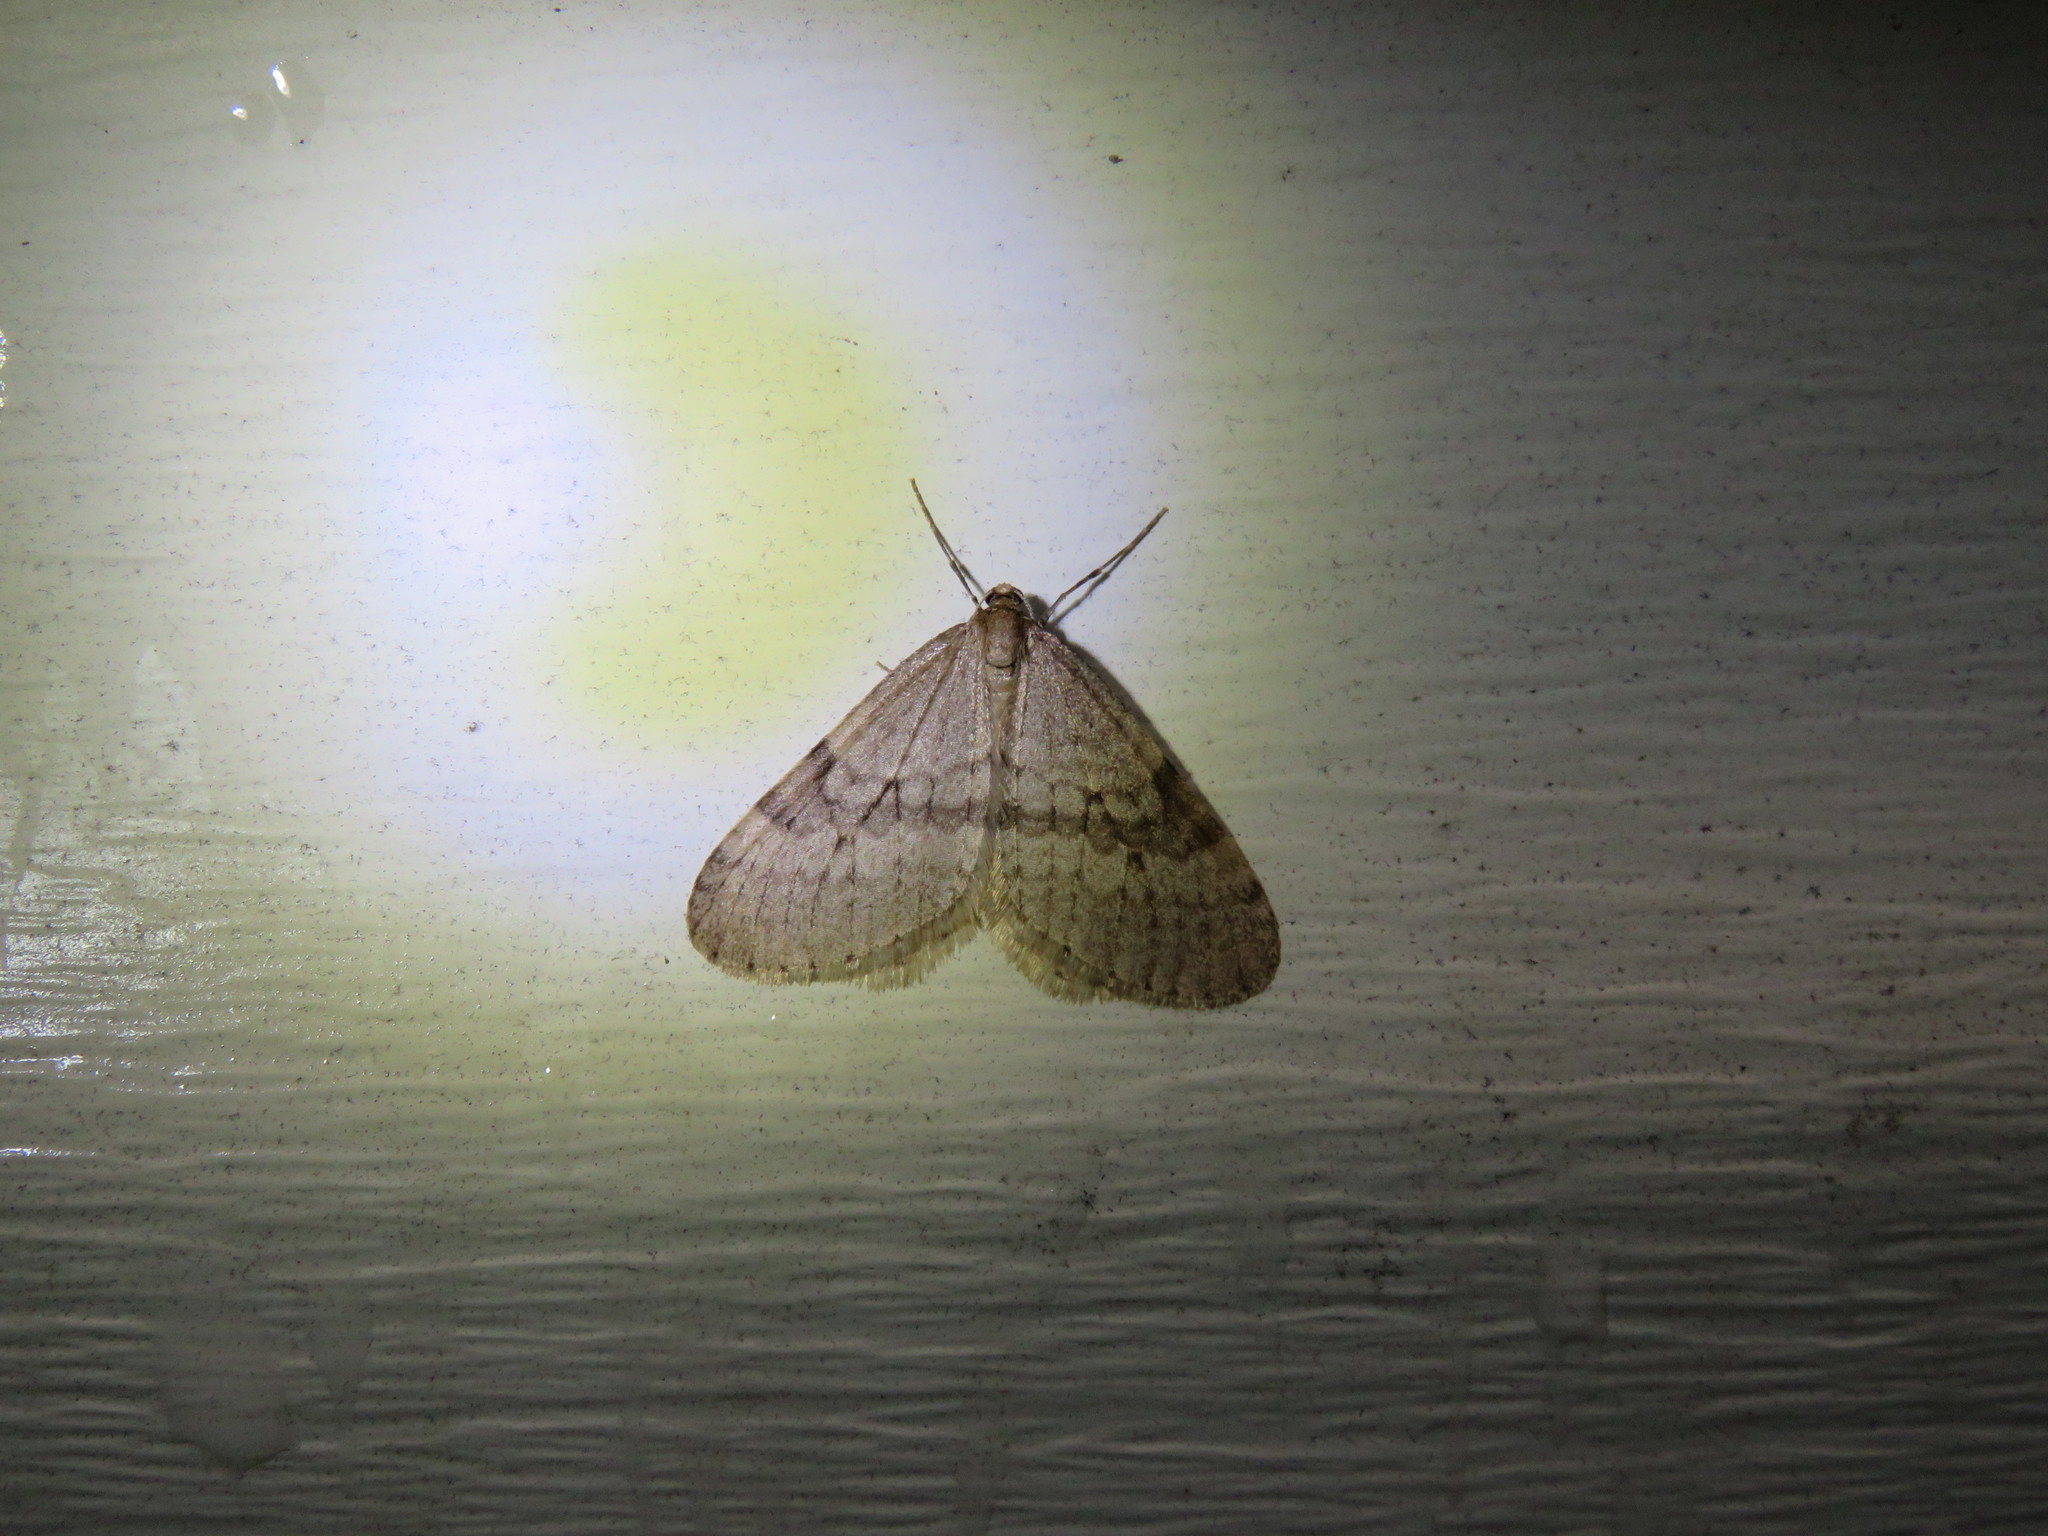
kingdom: Animalia
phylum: Arthropoda
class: Insecta
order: Lepidoptera
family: Geometridae
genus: Operophtera
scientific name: Operophtera bruceata
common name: Bruce spanworm
